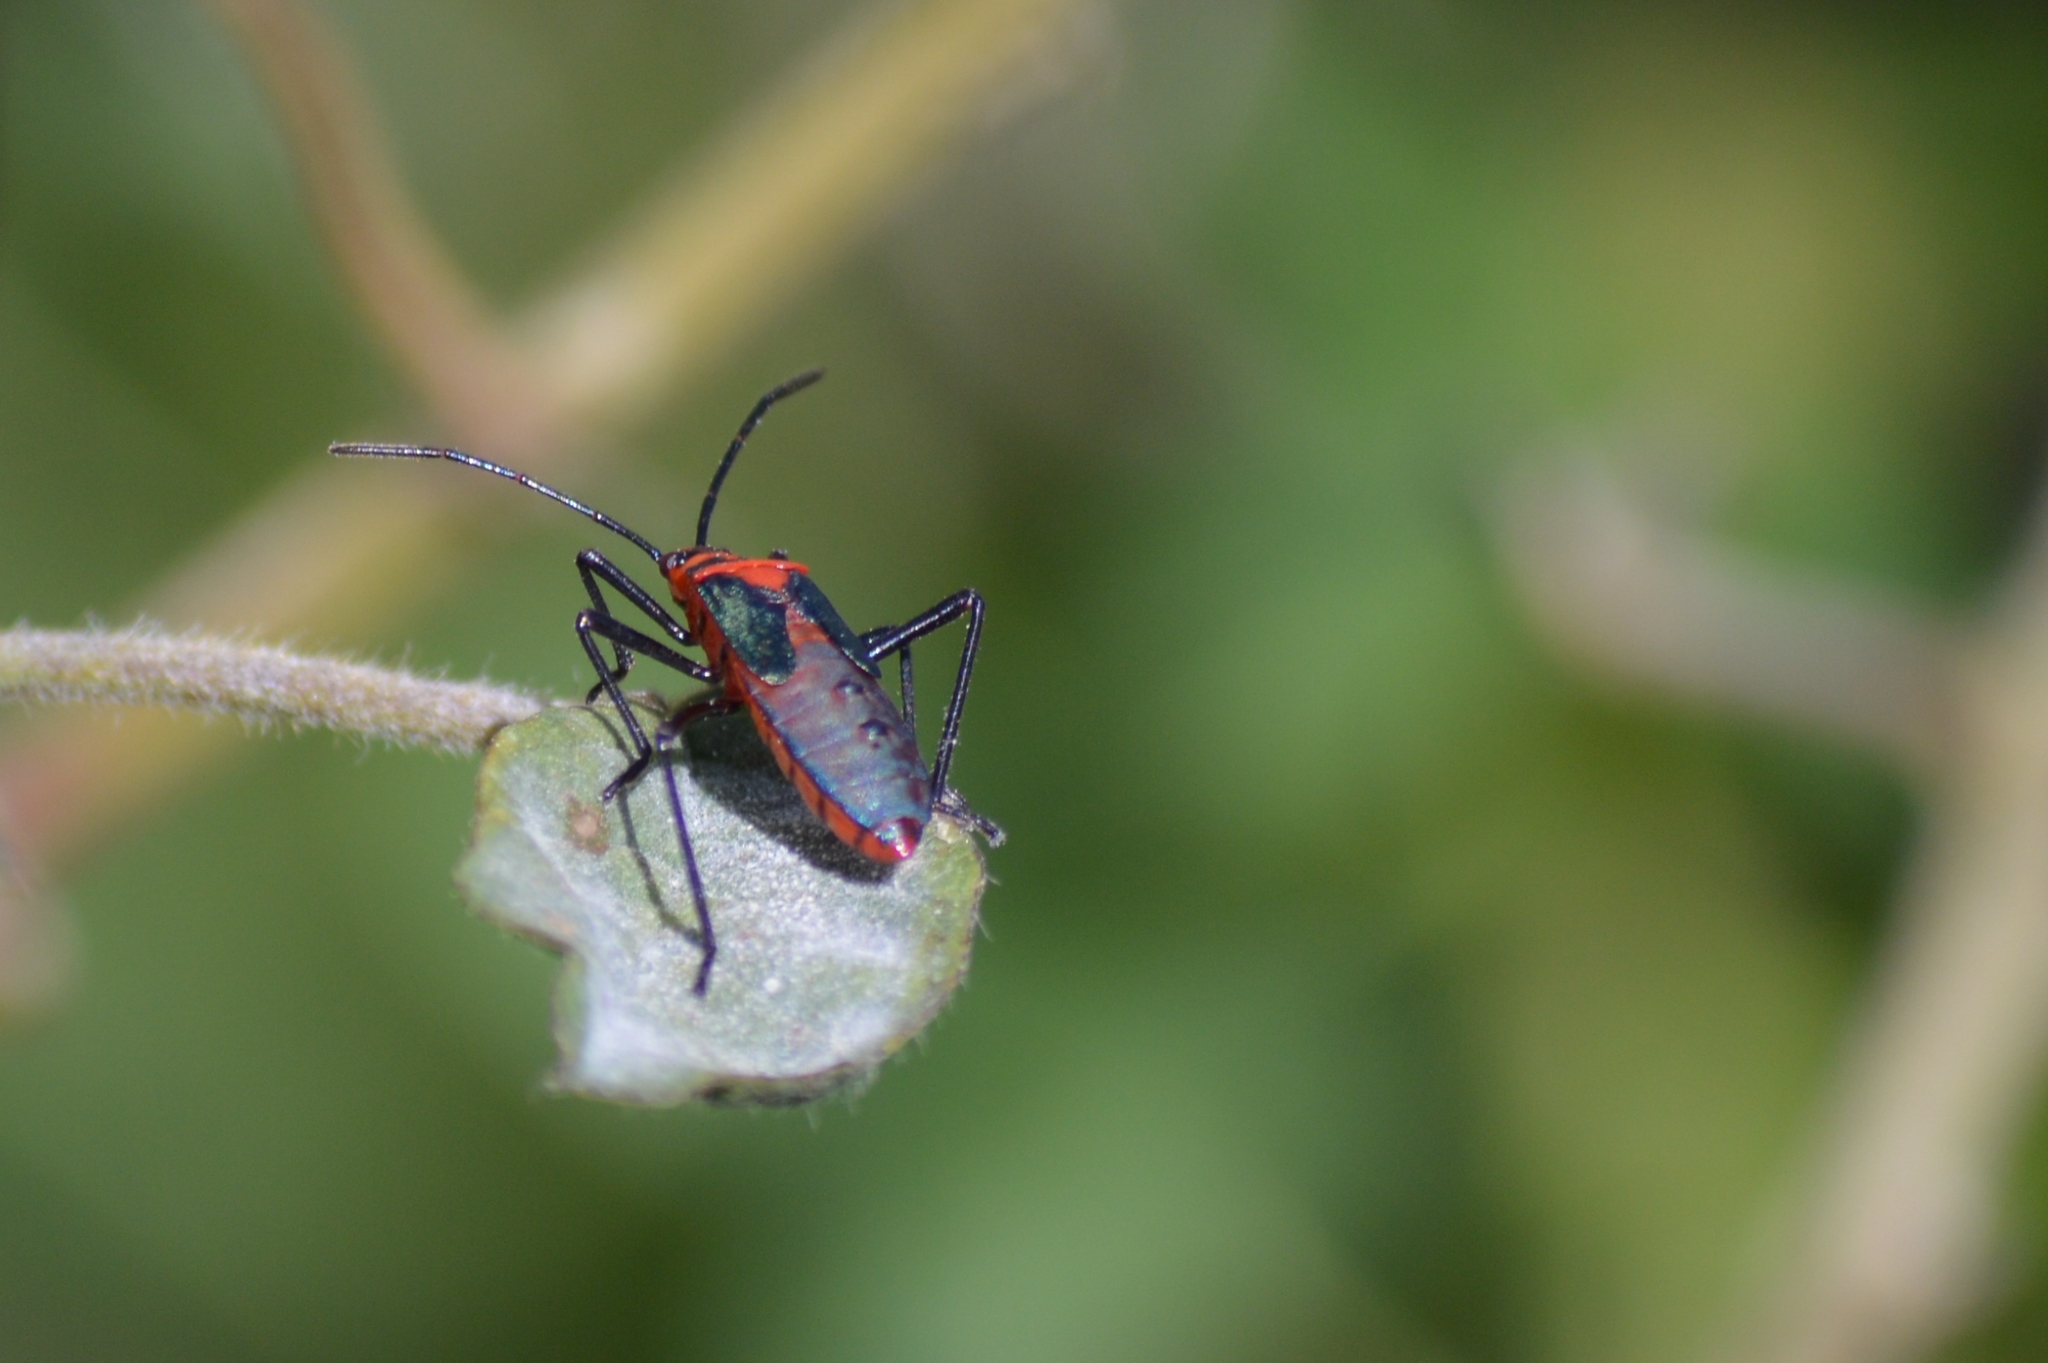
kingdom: Animalia
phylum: Arthropoda
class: Insecta
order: Hemiptera
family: Coreidae
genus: Sphictyrtus
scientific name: Sphictyrtus chrysis
